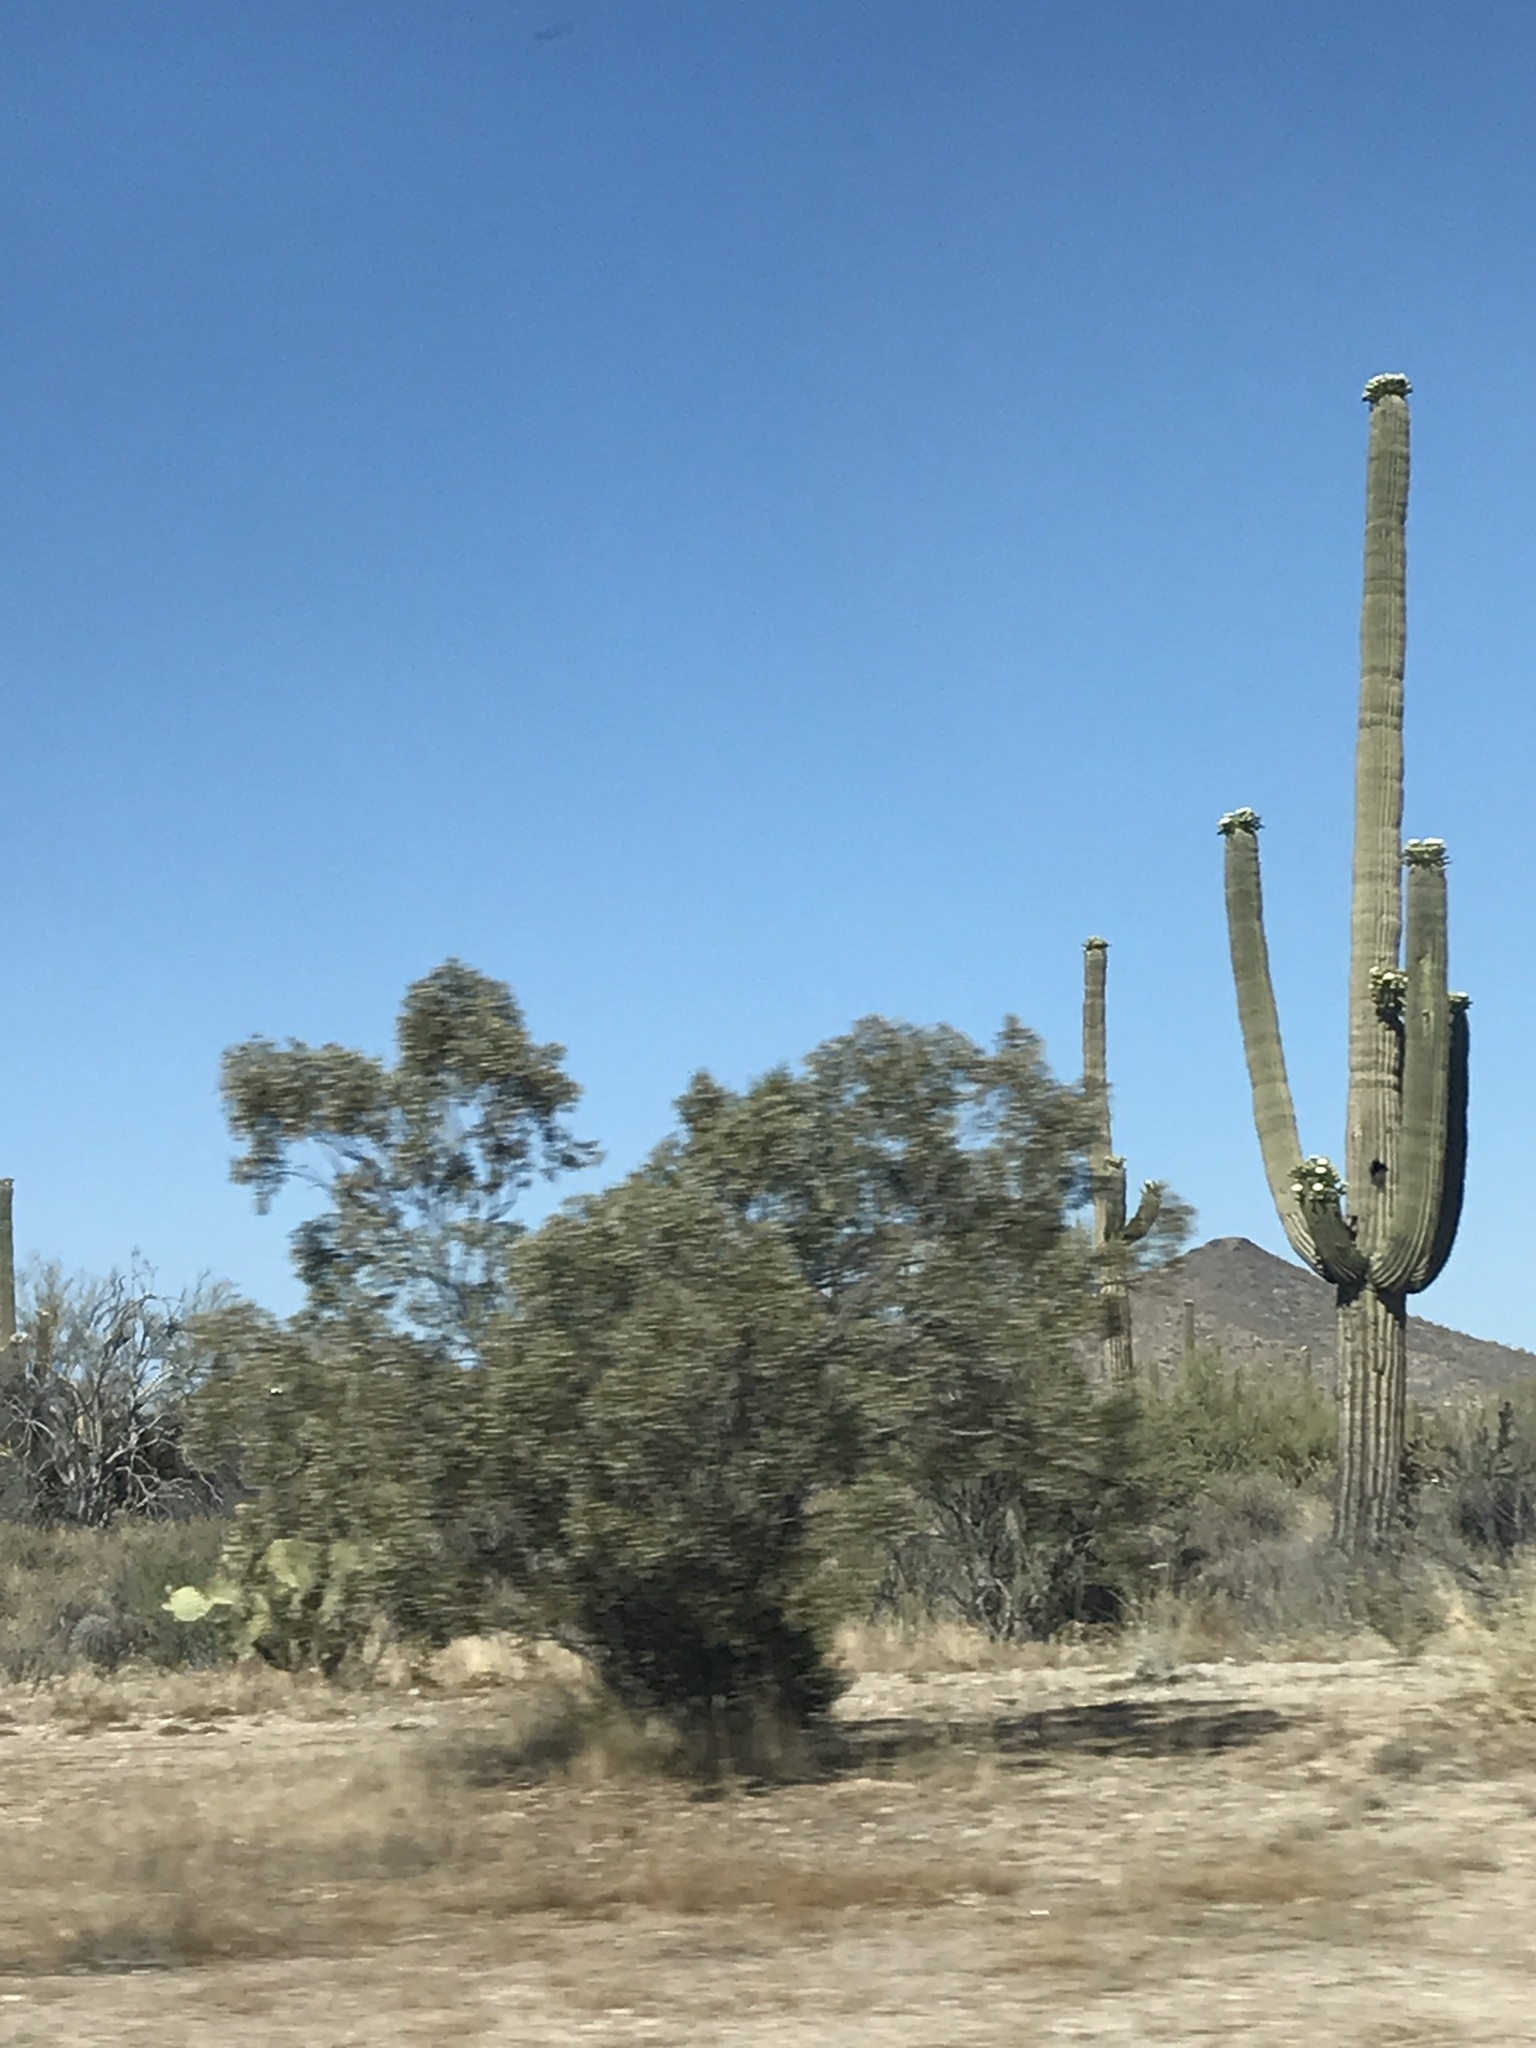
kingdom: Plantae
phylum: Tracheophyta
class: Magnoliopsida
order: Caryophyllales
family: Cactaceae
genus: Carnegiea
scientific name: Carnegiea gigantea
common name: Saguaro
